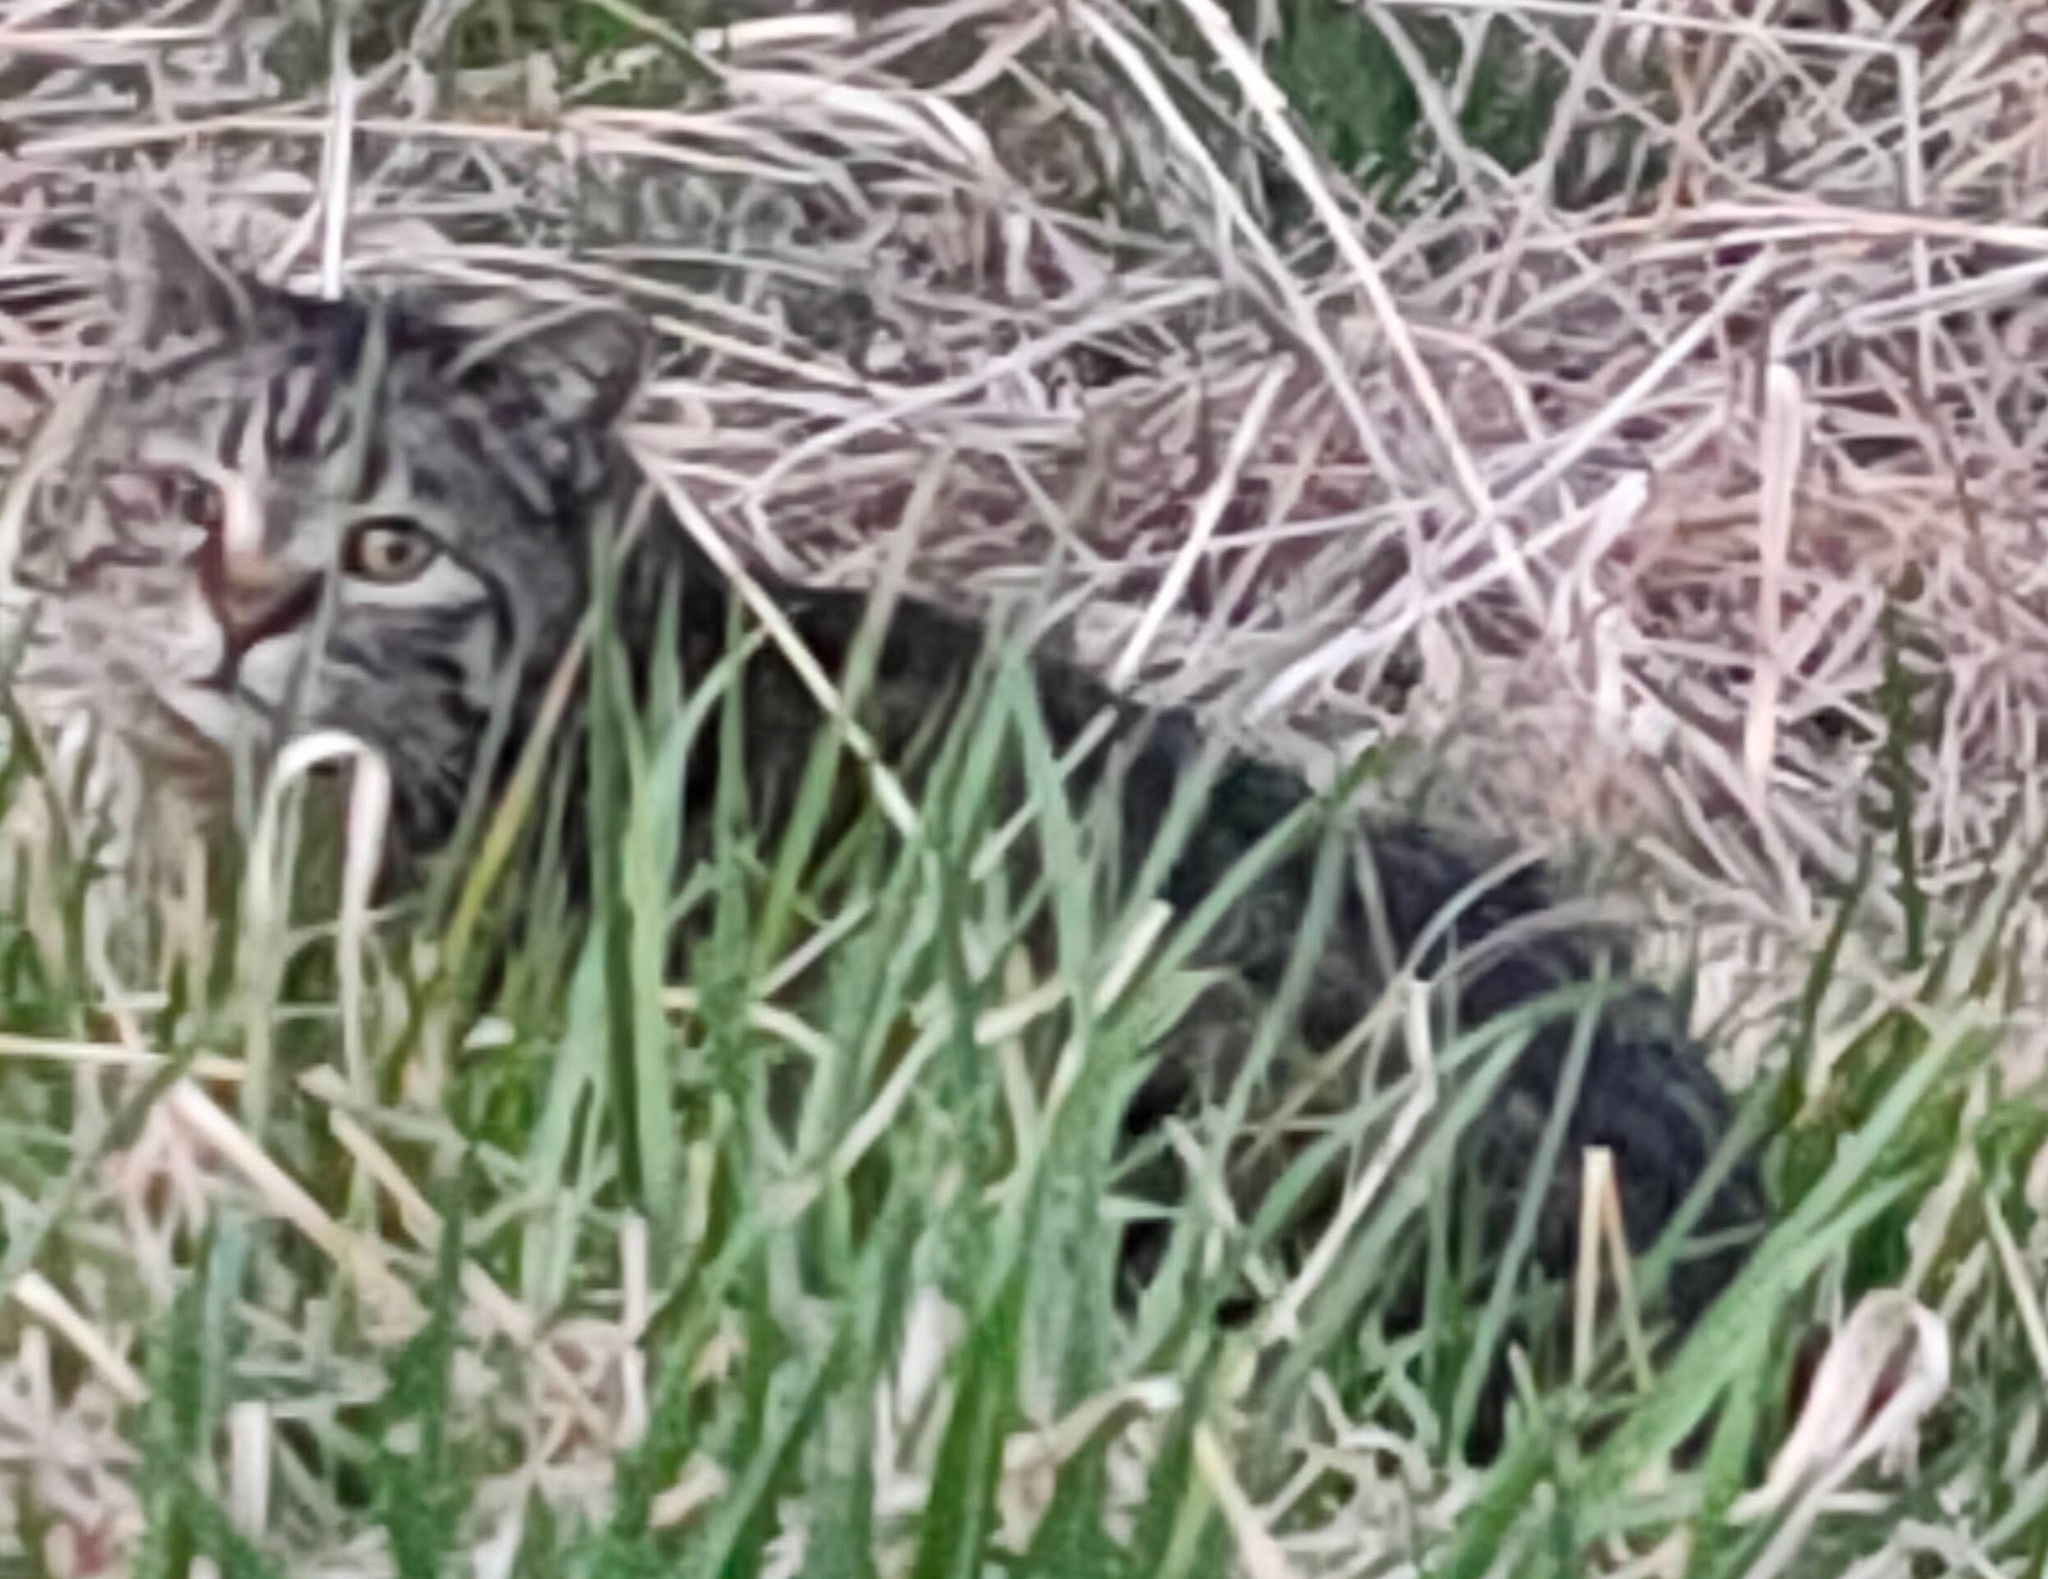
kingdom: Animalia
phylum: Chordata
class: Mammalia
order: Carnivora
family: Felidae
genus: Felis
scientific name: Felis catus
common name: Domestic cat
